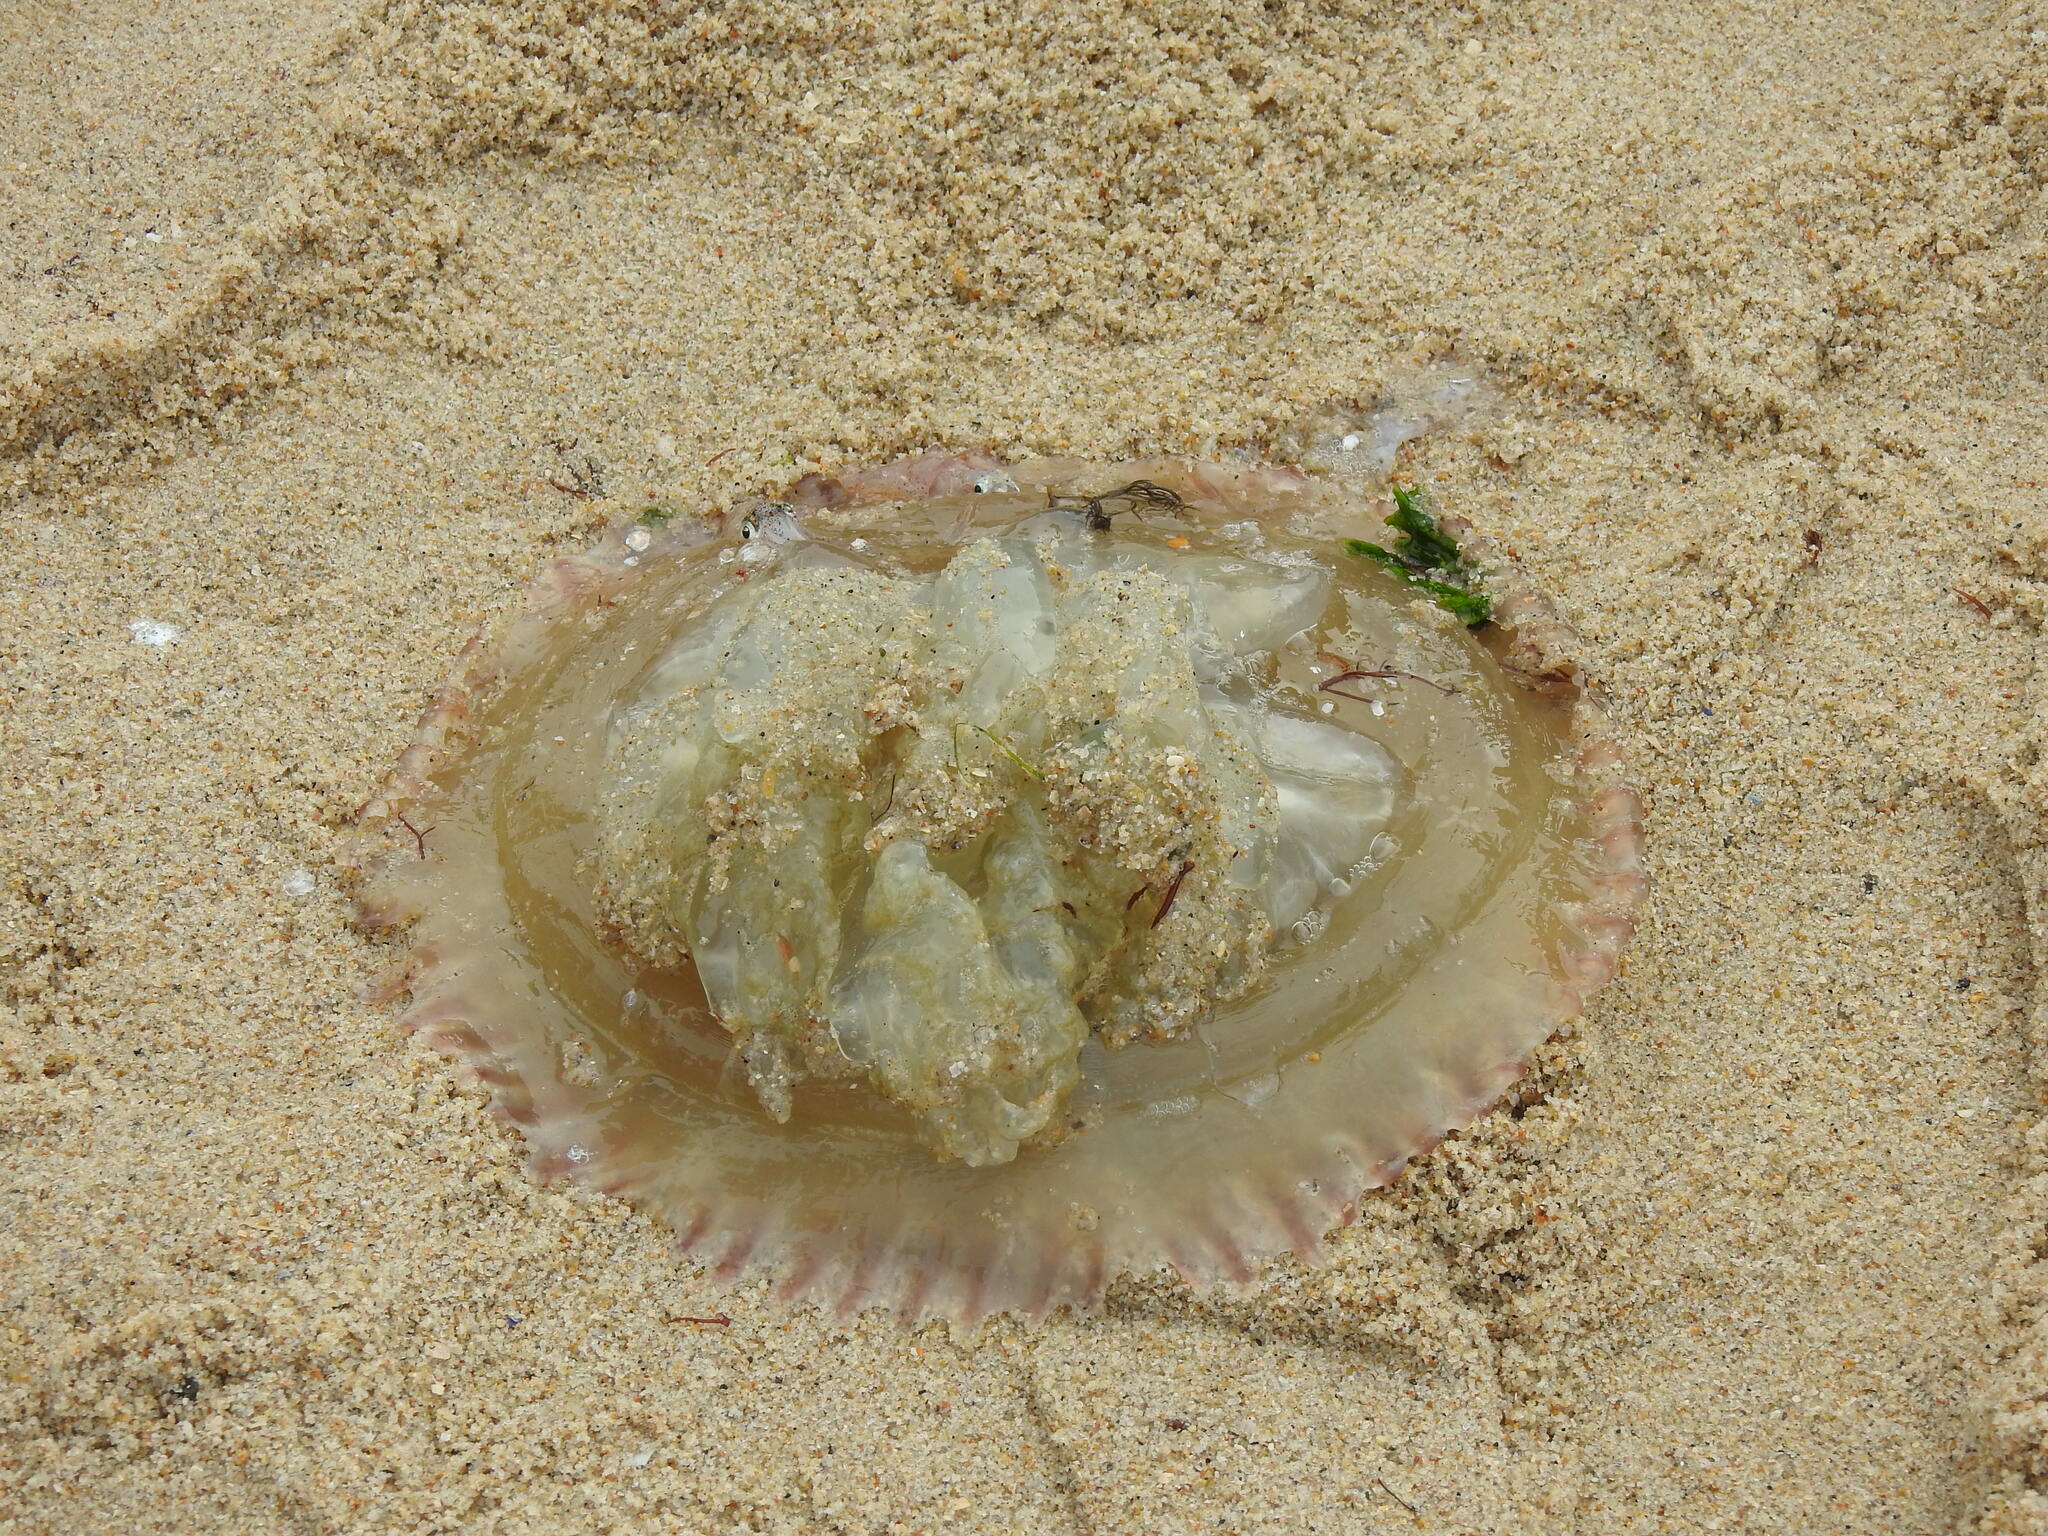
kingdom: Animalia
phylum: Cnidaria
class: Scyphozoa
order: Rhizostomeae
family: Catostylidae
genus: Catostylus
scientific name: Catostylus tagi
